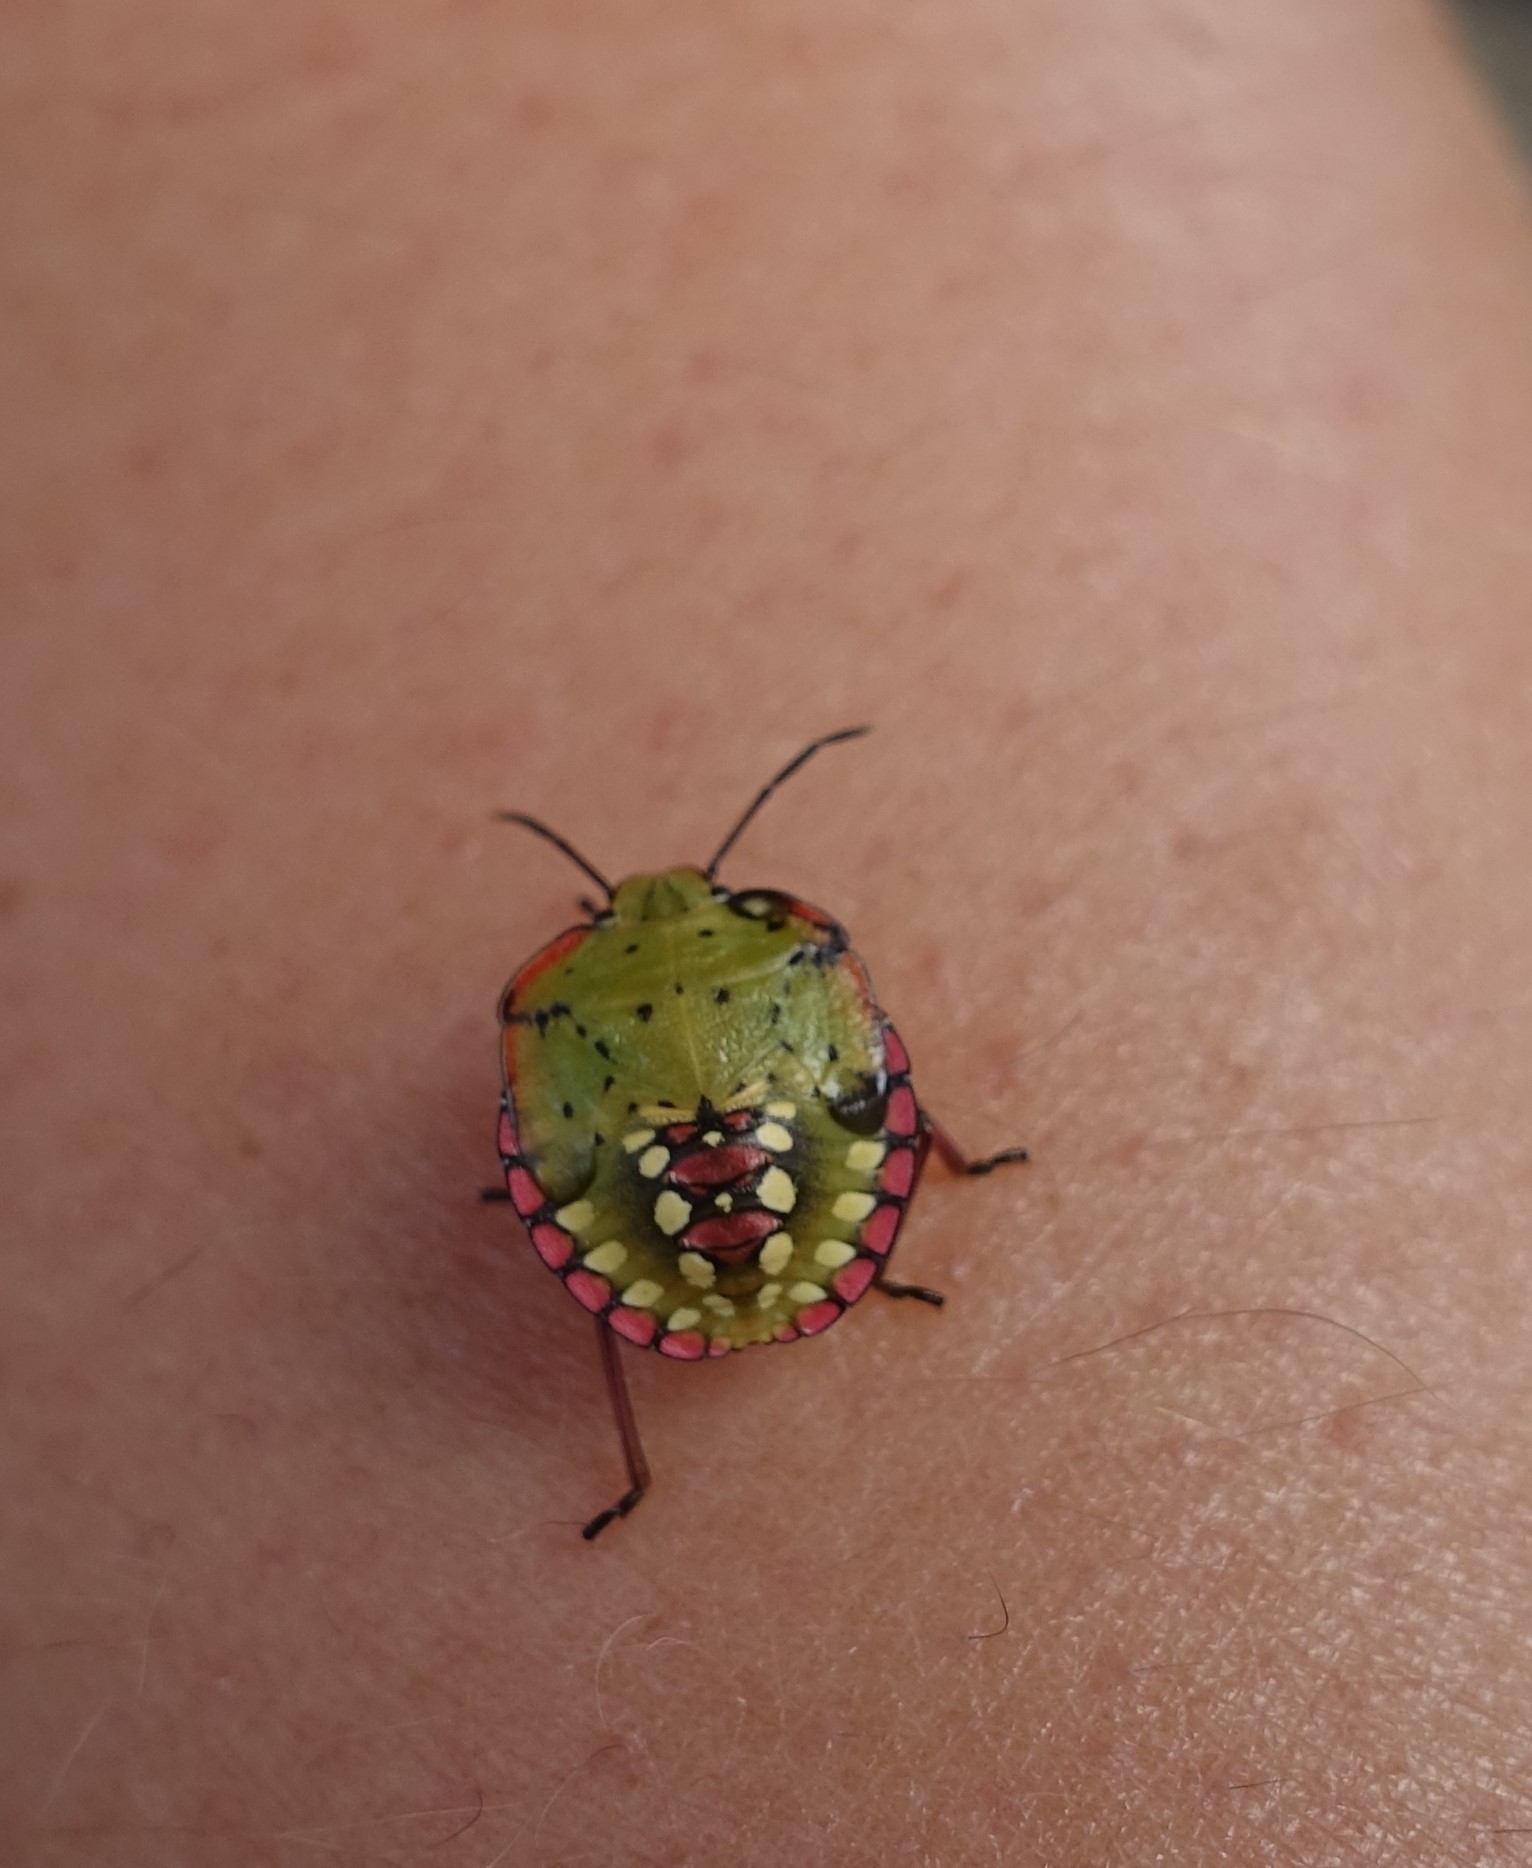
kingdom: Animalia
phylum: Arthropoda
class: Insecta
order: Hemiptera
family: Pentatomidae
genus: Nezara
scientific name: Nezara viridula
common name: Southern green stink bug
